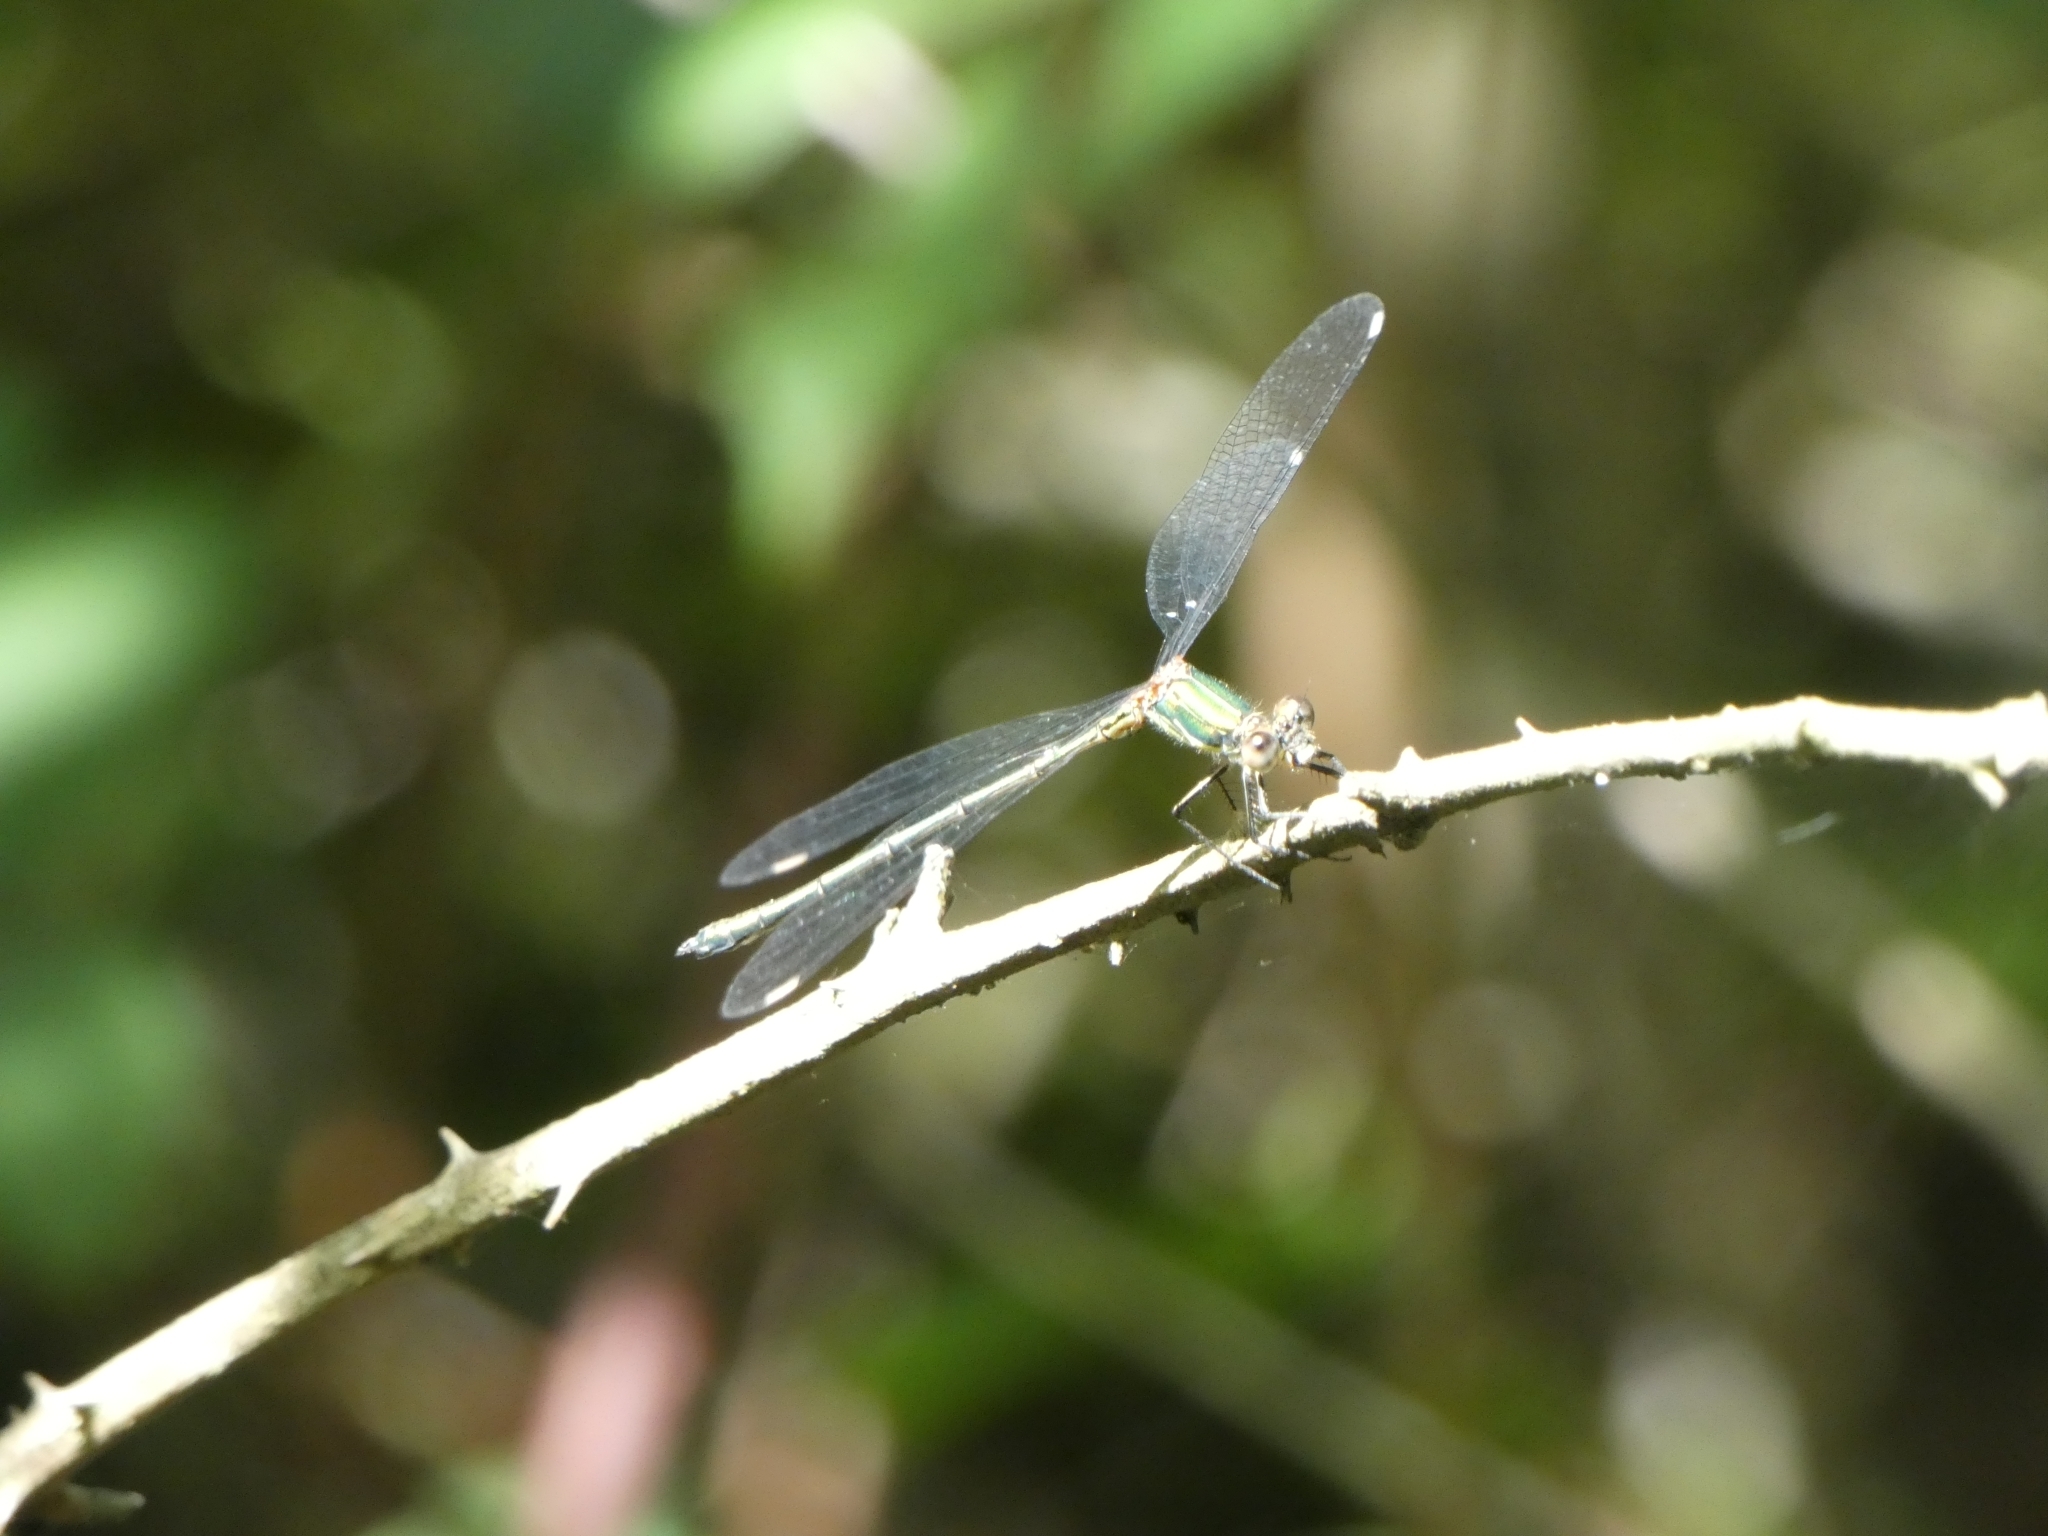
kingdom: Animalia
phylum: Arthropoda
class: Insecta
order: Odonata
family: Lestidae
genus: Chalcolestes
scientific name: Chalcolestes viridis
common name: Green emerald damselfly
